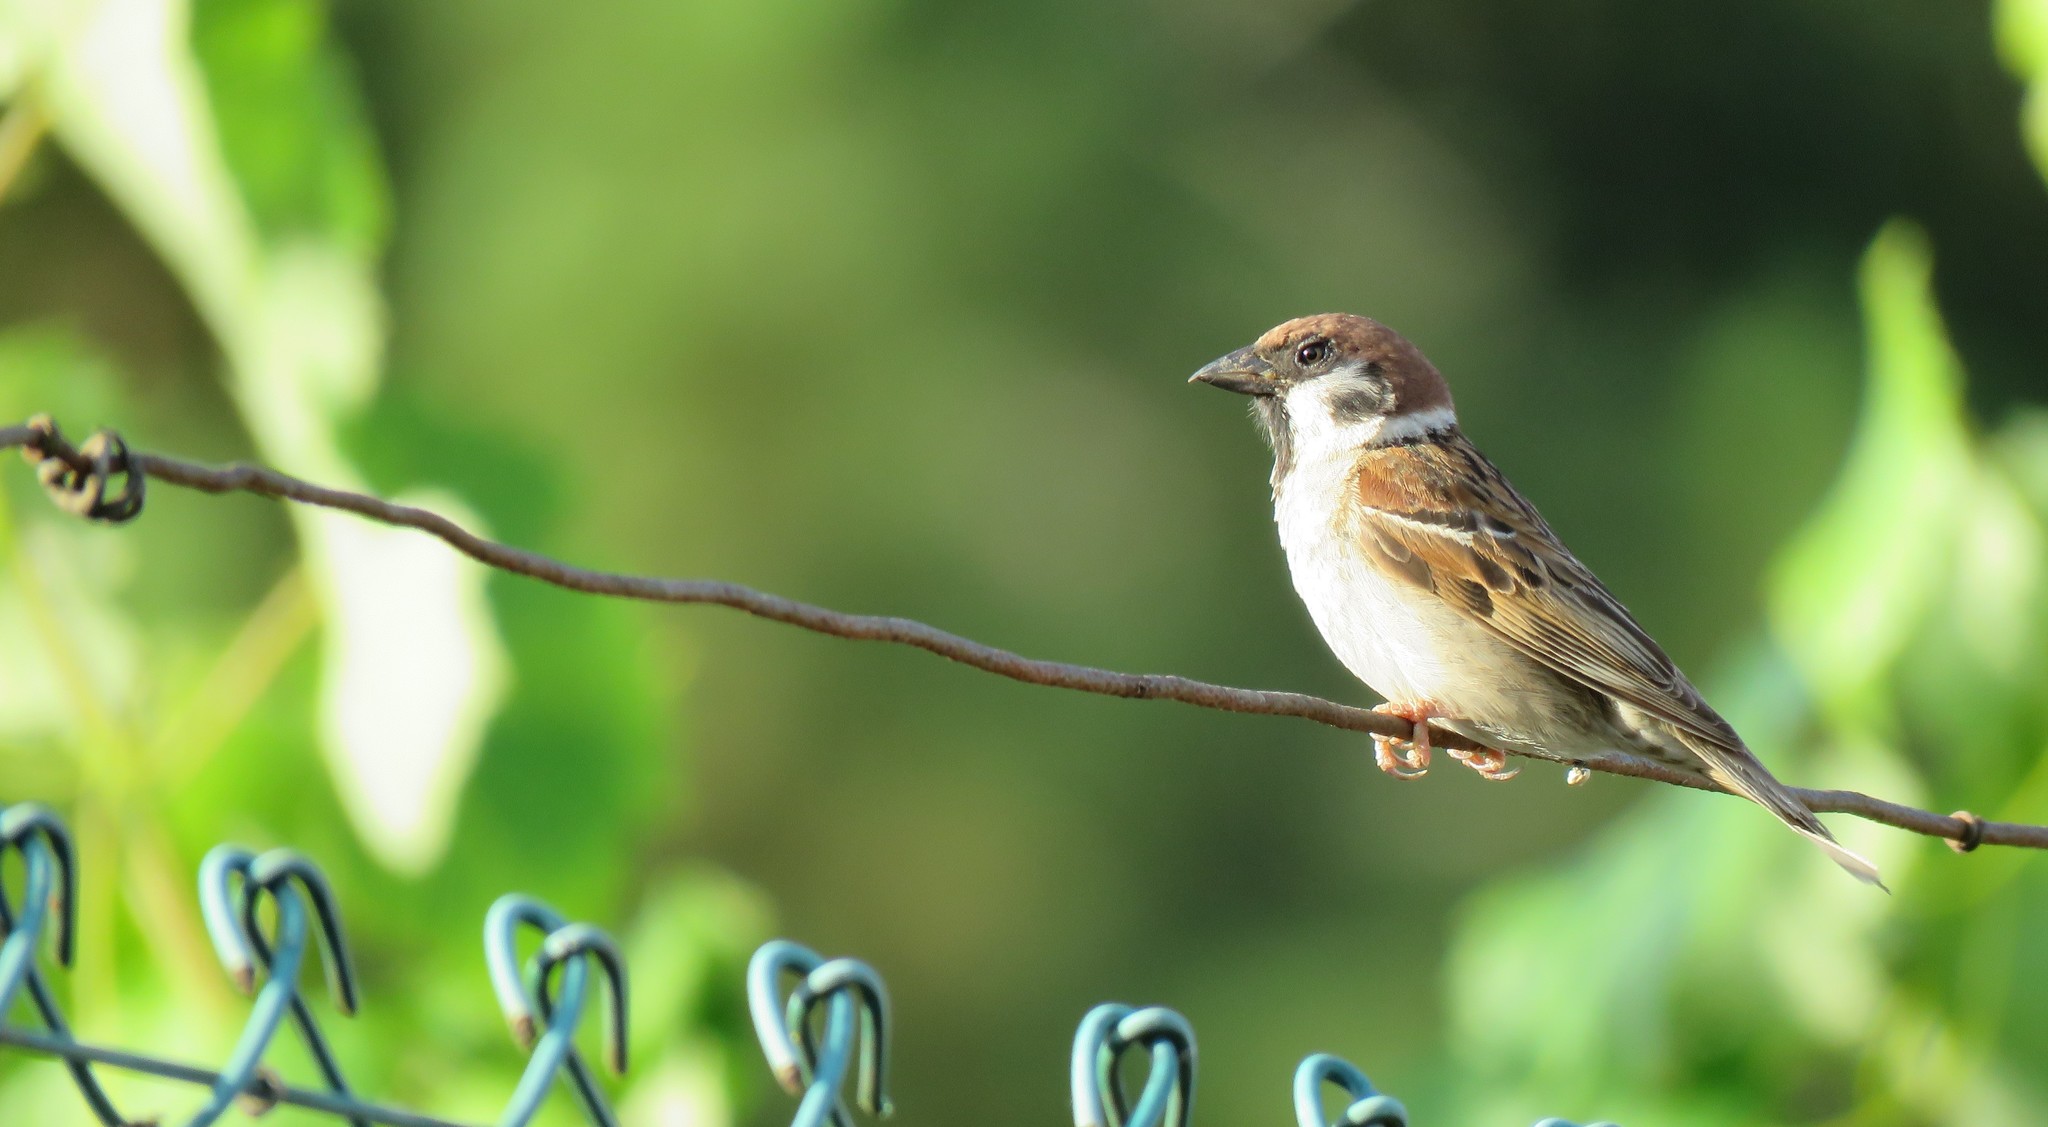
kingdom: Animalia
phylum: Chordata
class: Aves
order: Passeriformes
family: Passeridae
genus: Passer
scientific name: Passer montanus
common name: Eurasian tree sparrow
